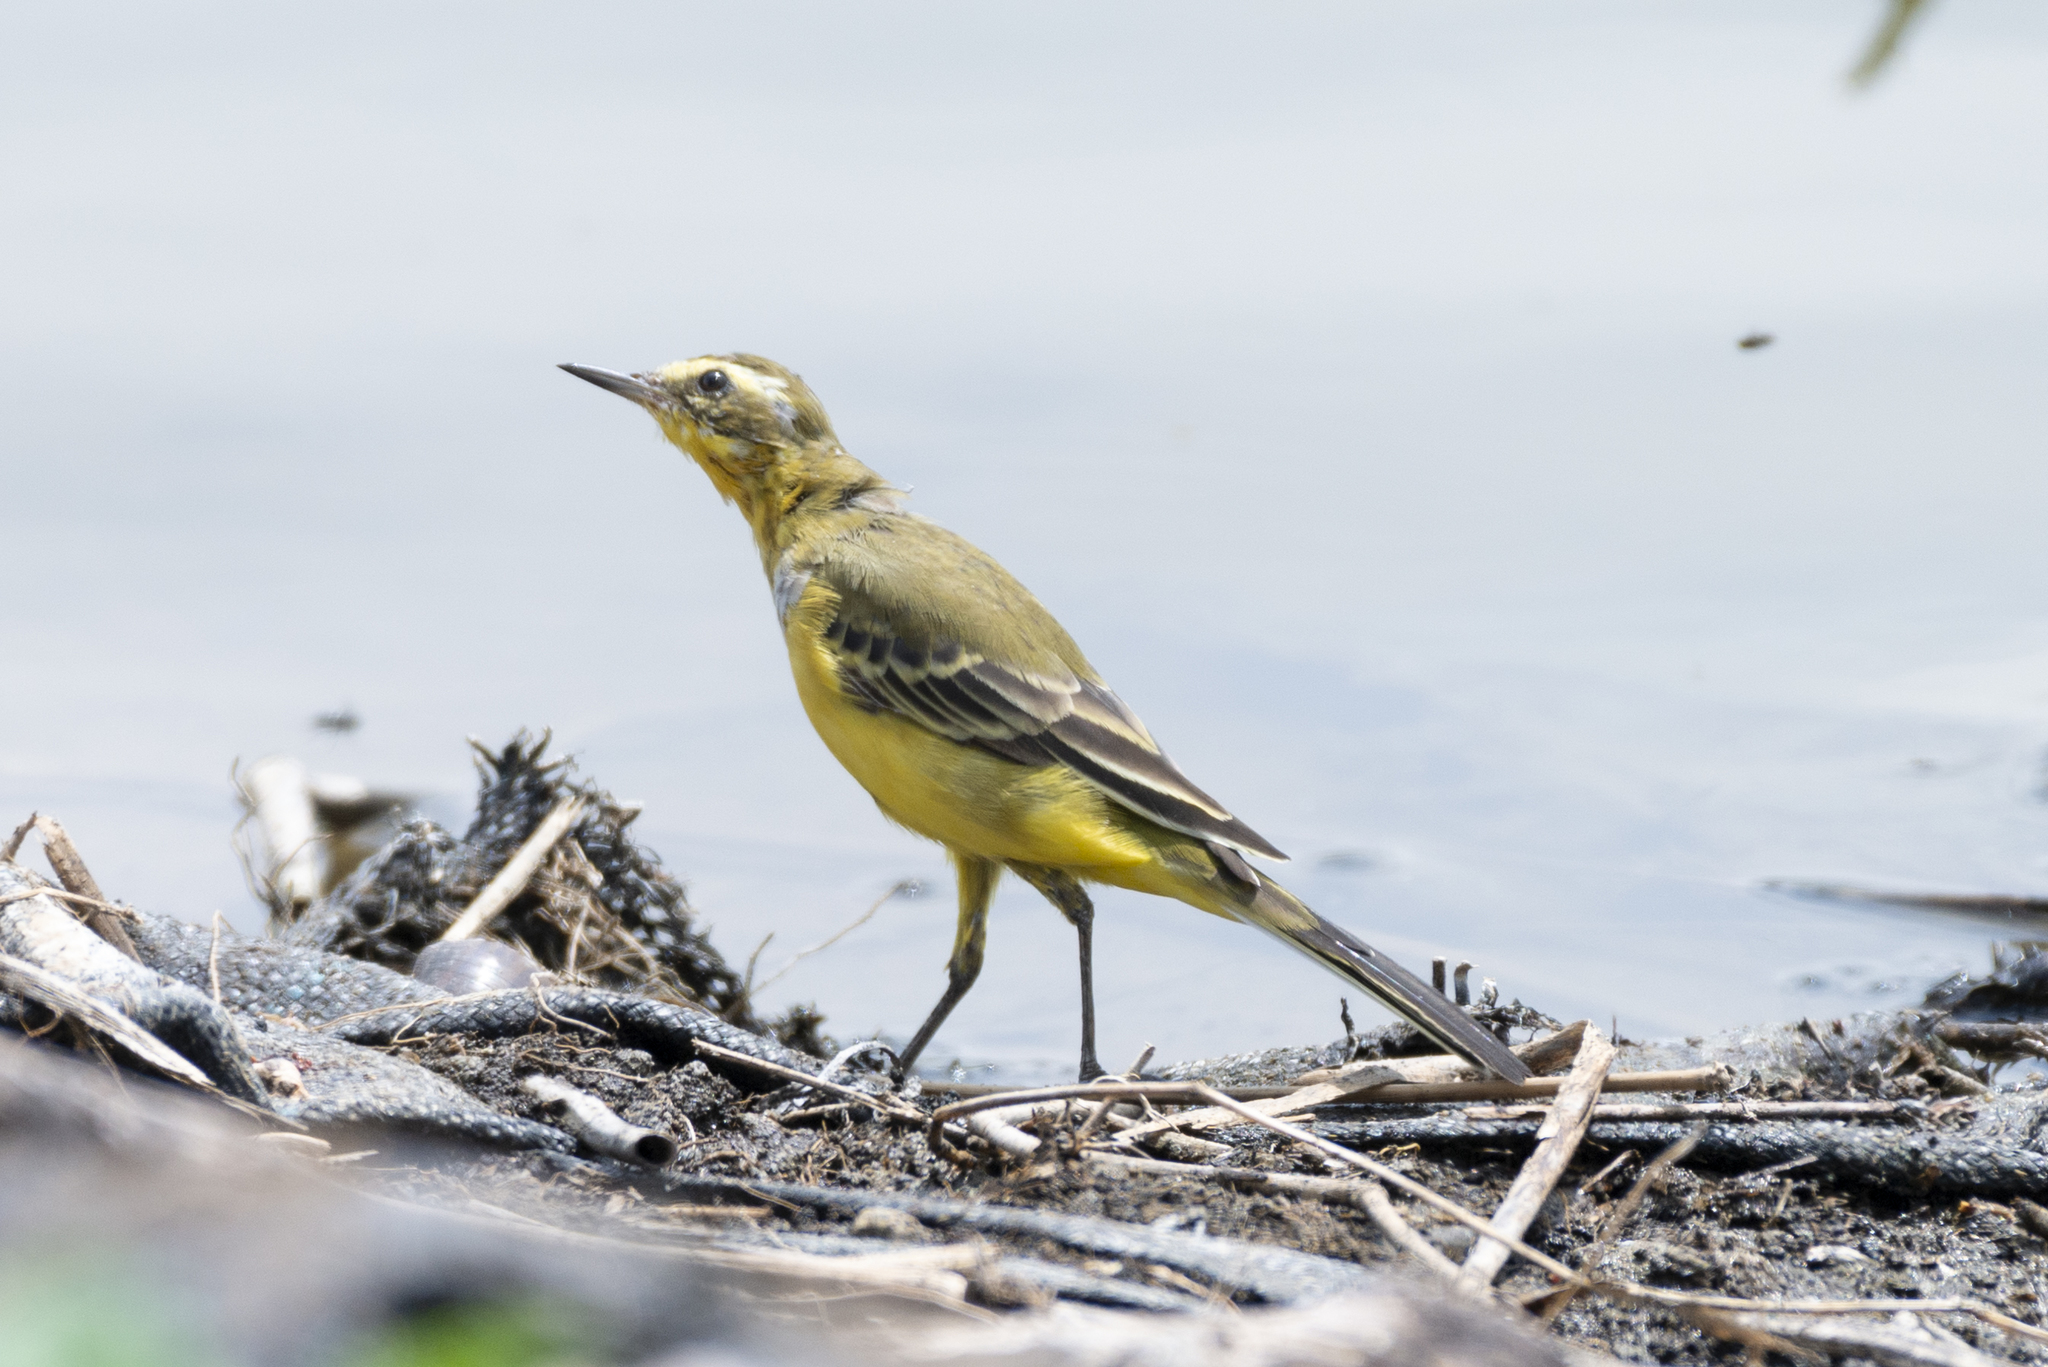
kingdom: Animalia
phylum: Chordata
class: Aves
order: Passeriformes
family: Motacillidae
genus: Motacilla
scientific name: Motacilla tschutschensis
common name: Eastern yellow wagtail
